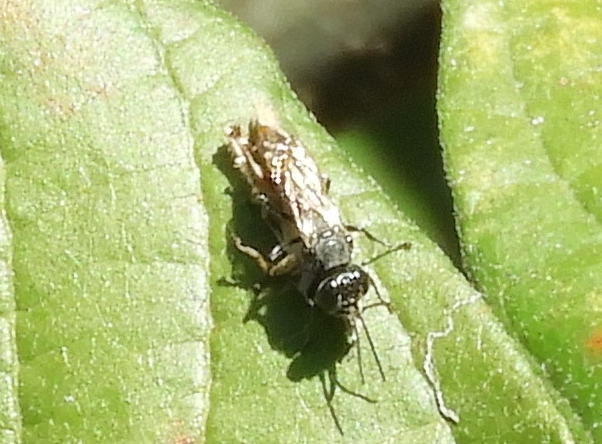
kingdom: Animalia
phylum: Arthropoda
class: Insecta
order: Hymenoptera
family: Crabronidae
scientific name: Crabronidae
